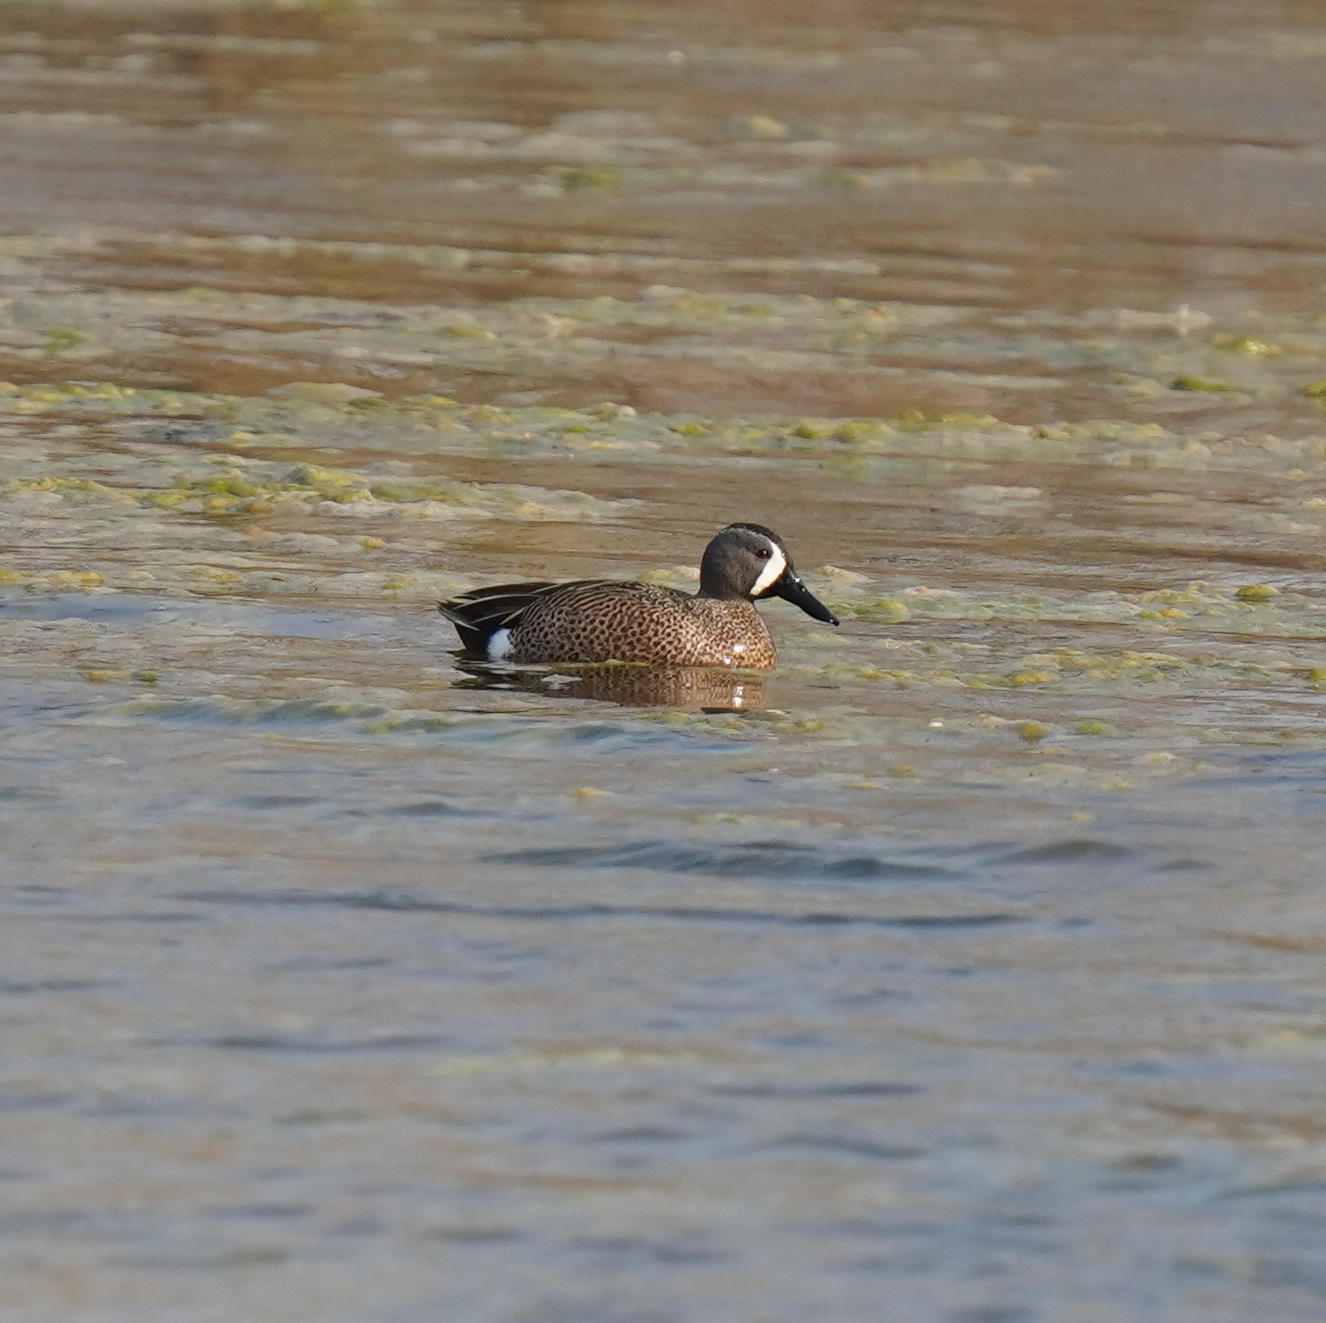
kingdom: Animalia
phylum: Chordata
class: Aves
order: Anseriformes
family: Anatidae
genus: Spatula
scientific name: Spatula discors
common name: Blue-winged teal
